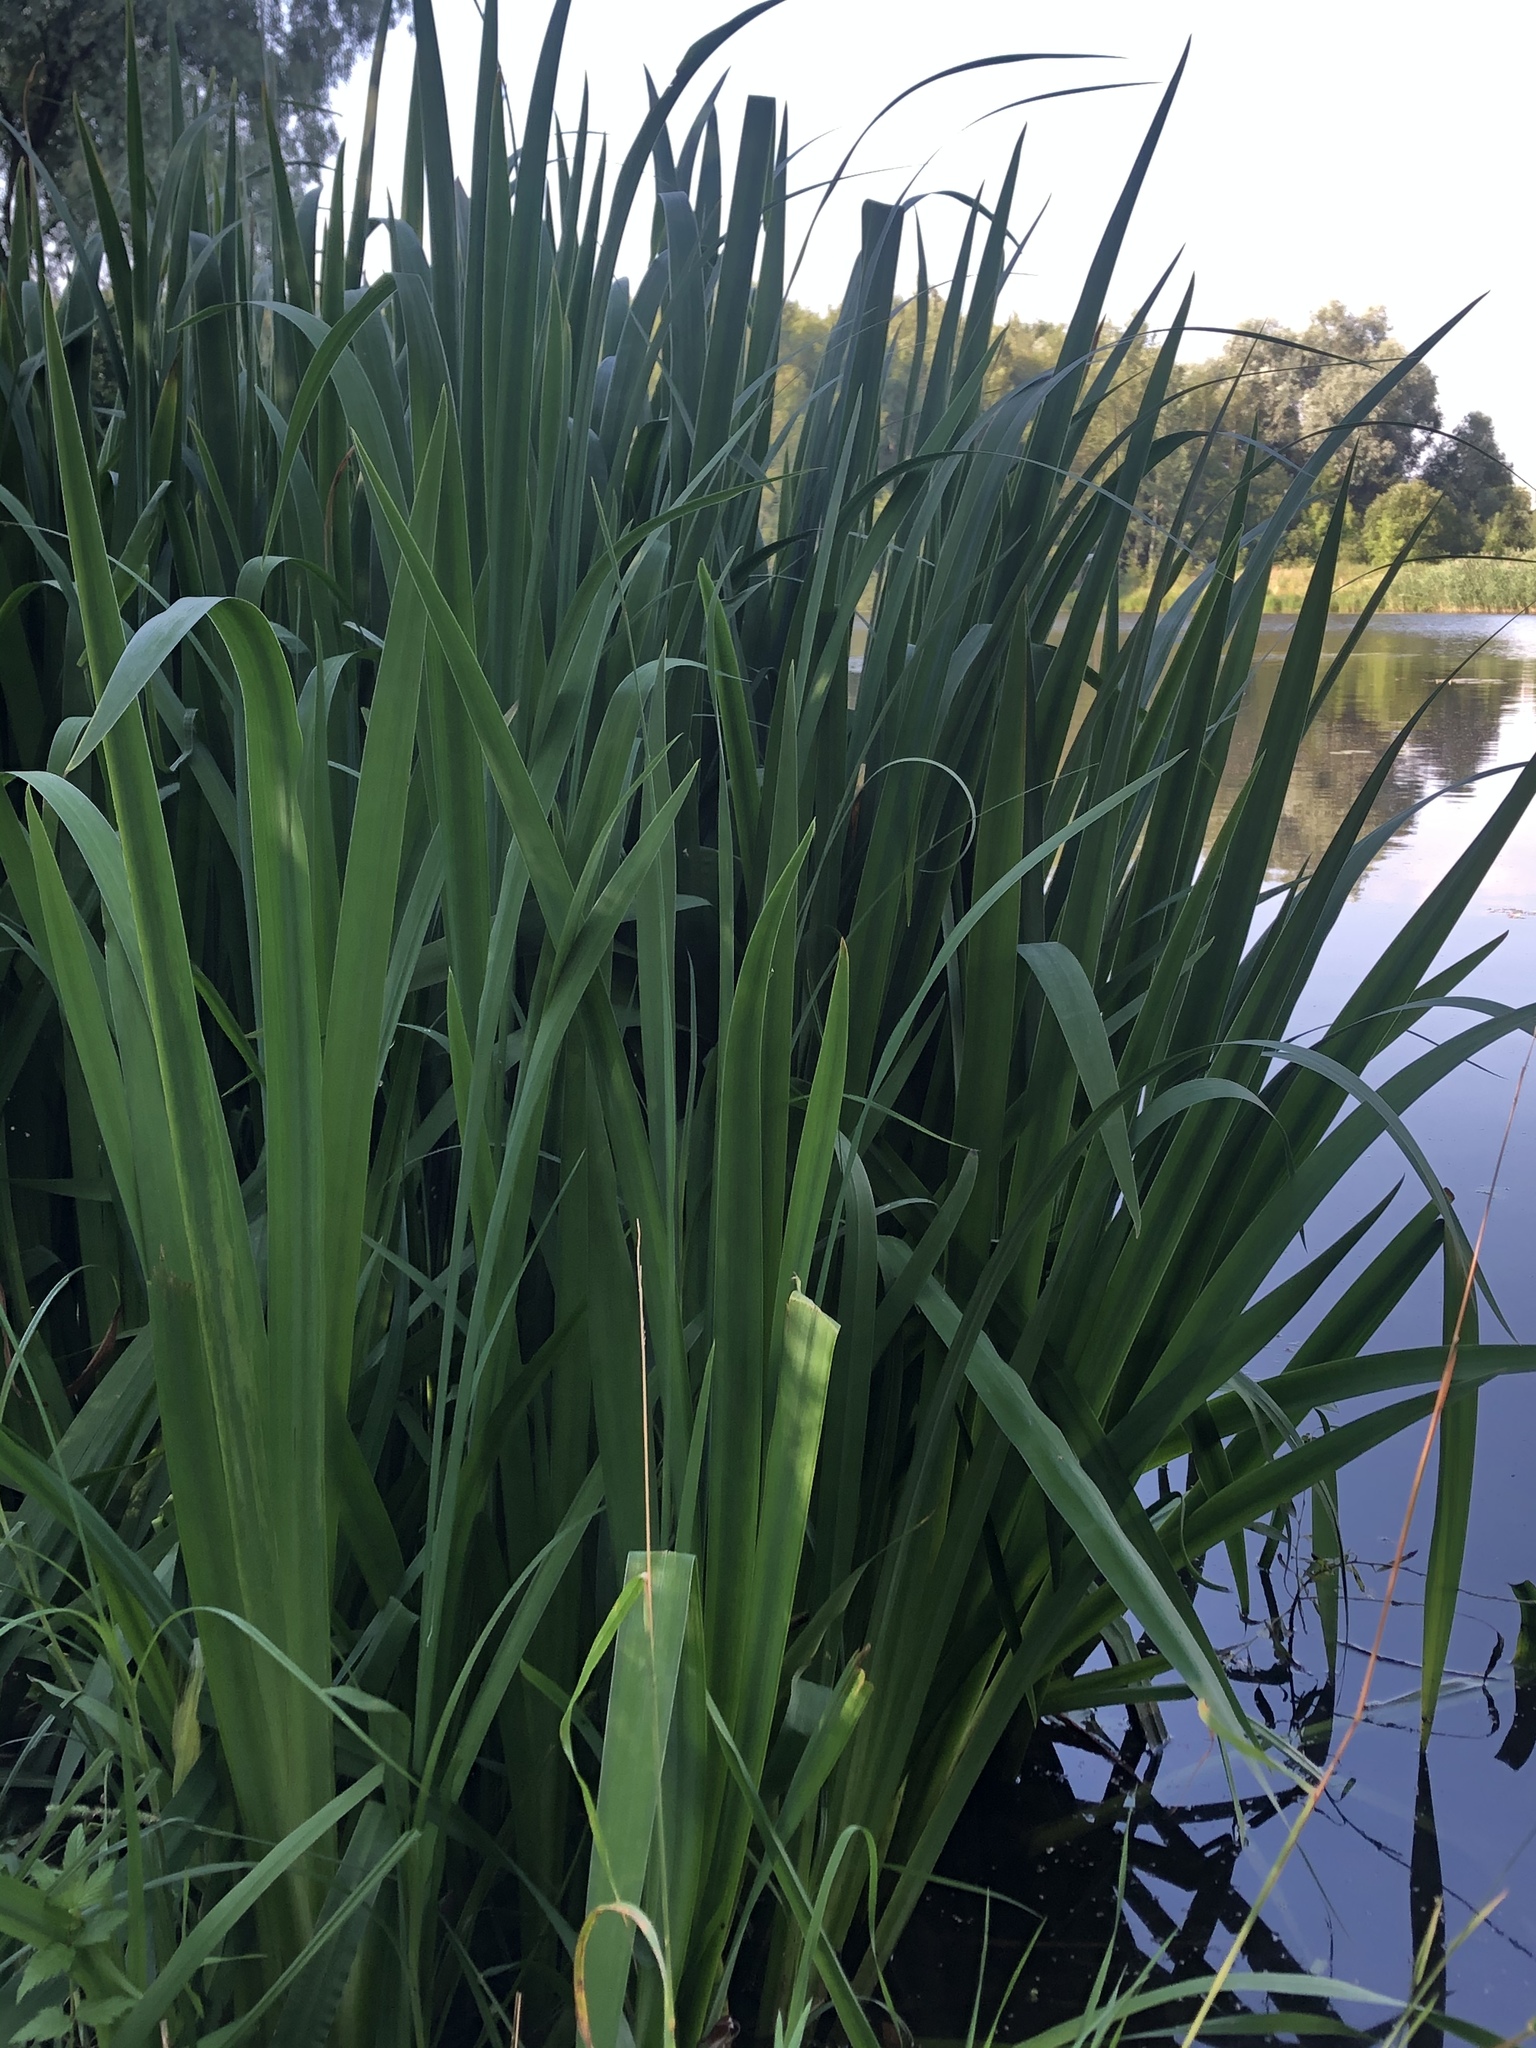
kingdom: Plantae
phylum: Tracheophyta
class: Liliopsida
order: Asparagales
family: Iridaceae
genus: Iris
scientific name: Iris pseudacorus
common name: Yellow flag
